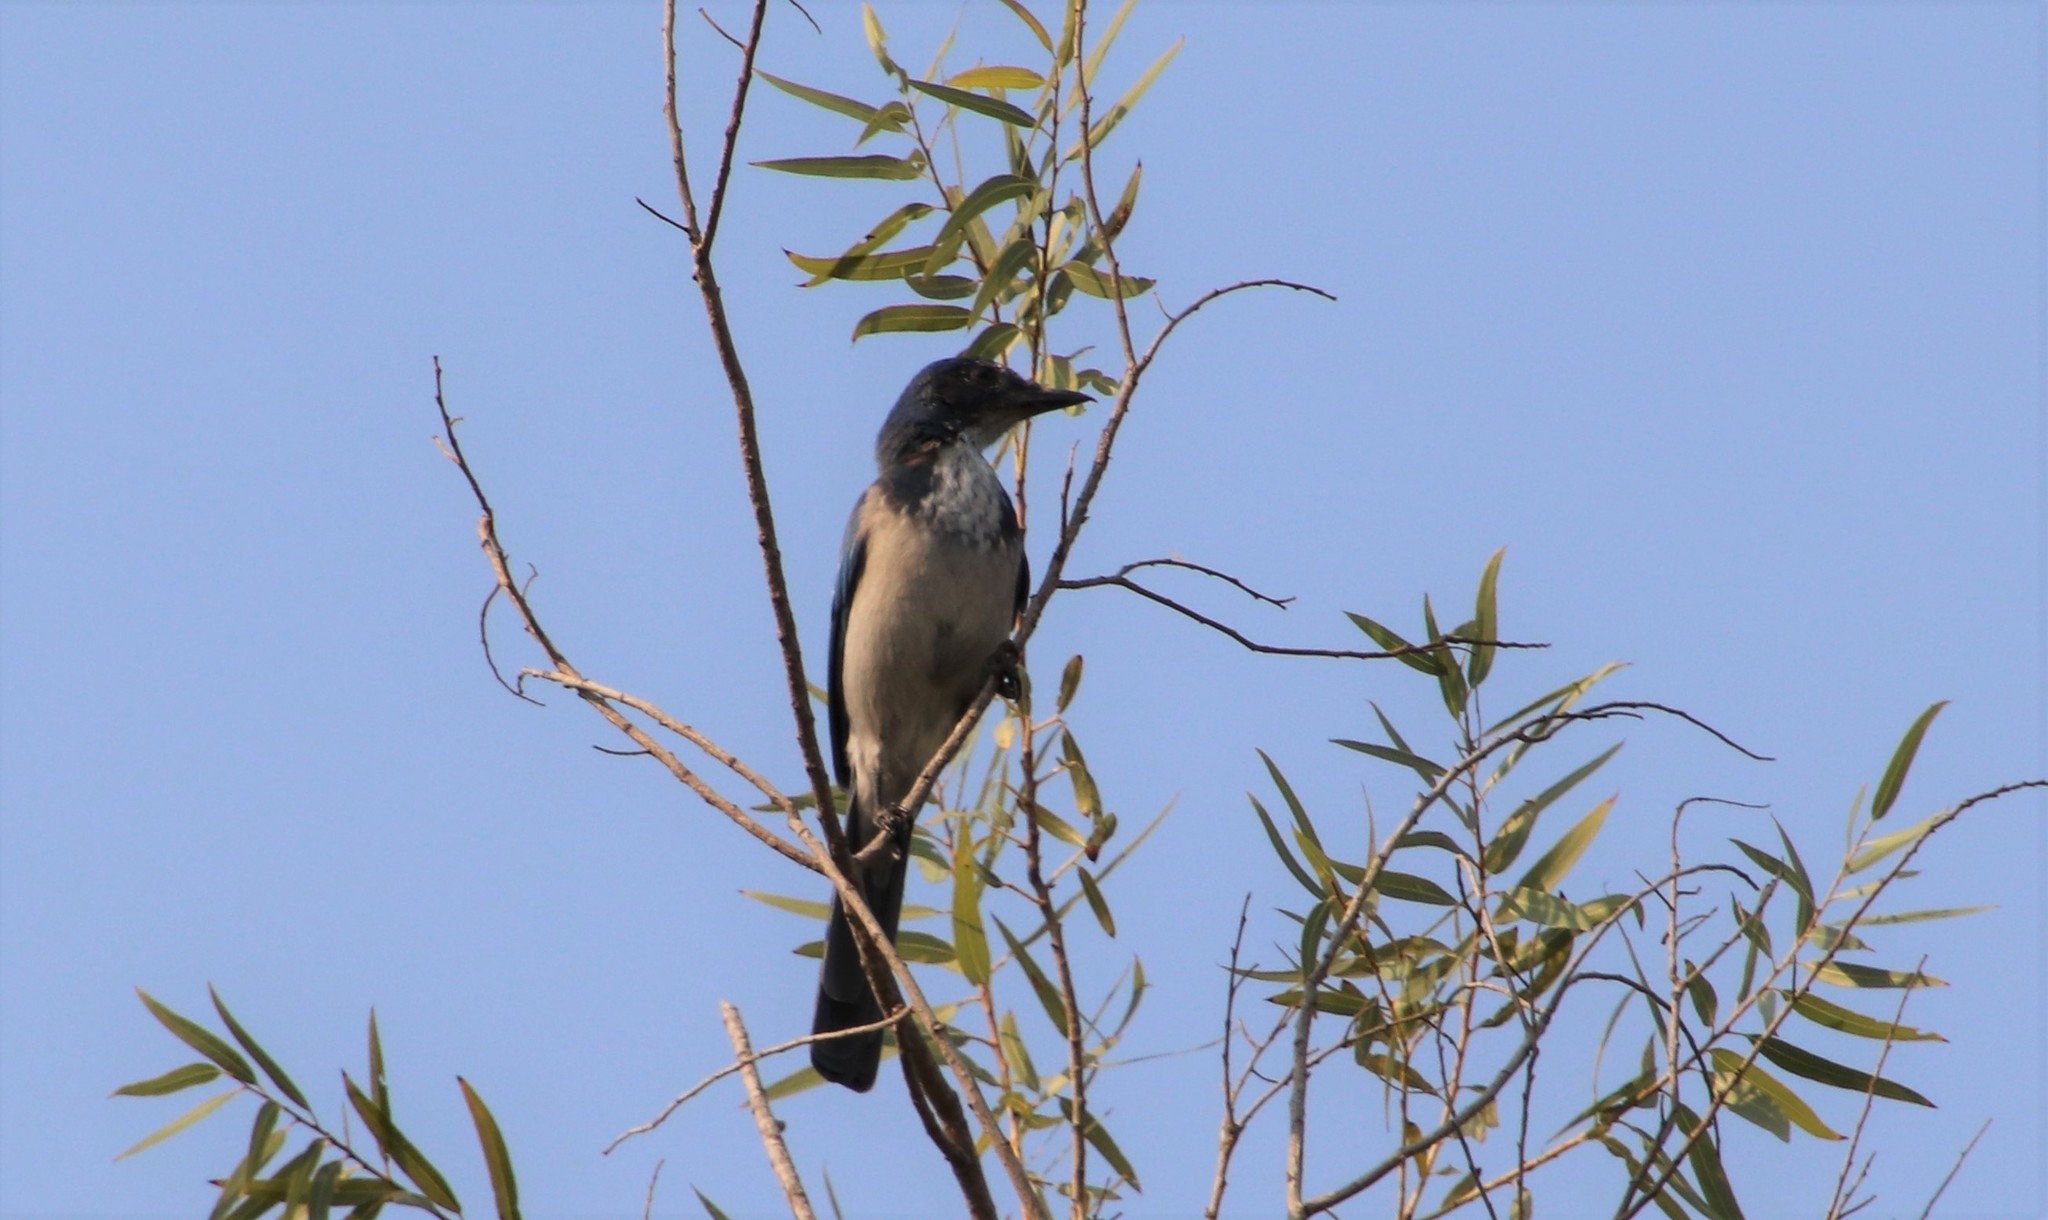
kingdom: Animalia
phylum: Chordata
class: Aves
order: Passeriformes
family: Corvidae
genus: Aphelocoma
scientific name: Aphelocoma californica
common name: California scrub-jay
